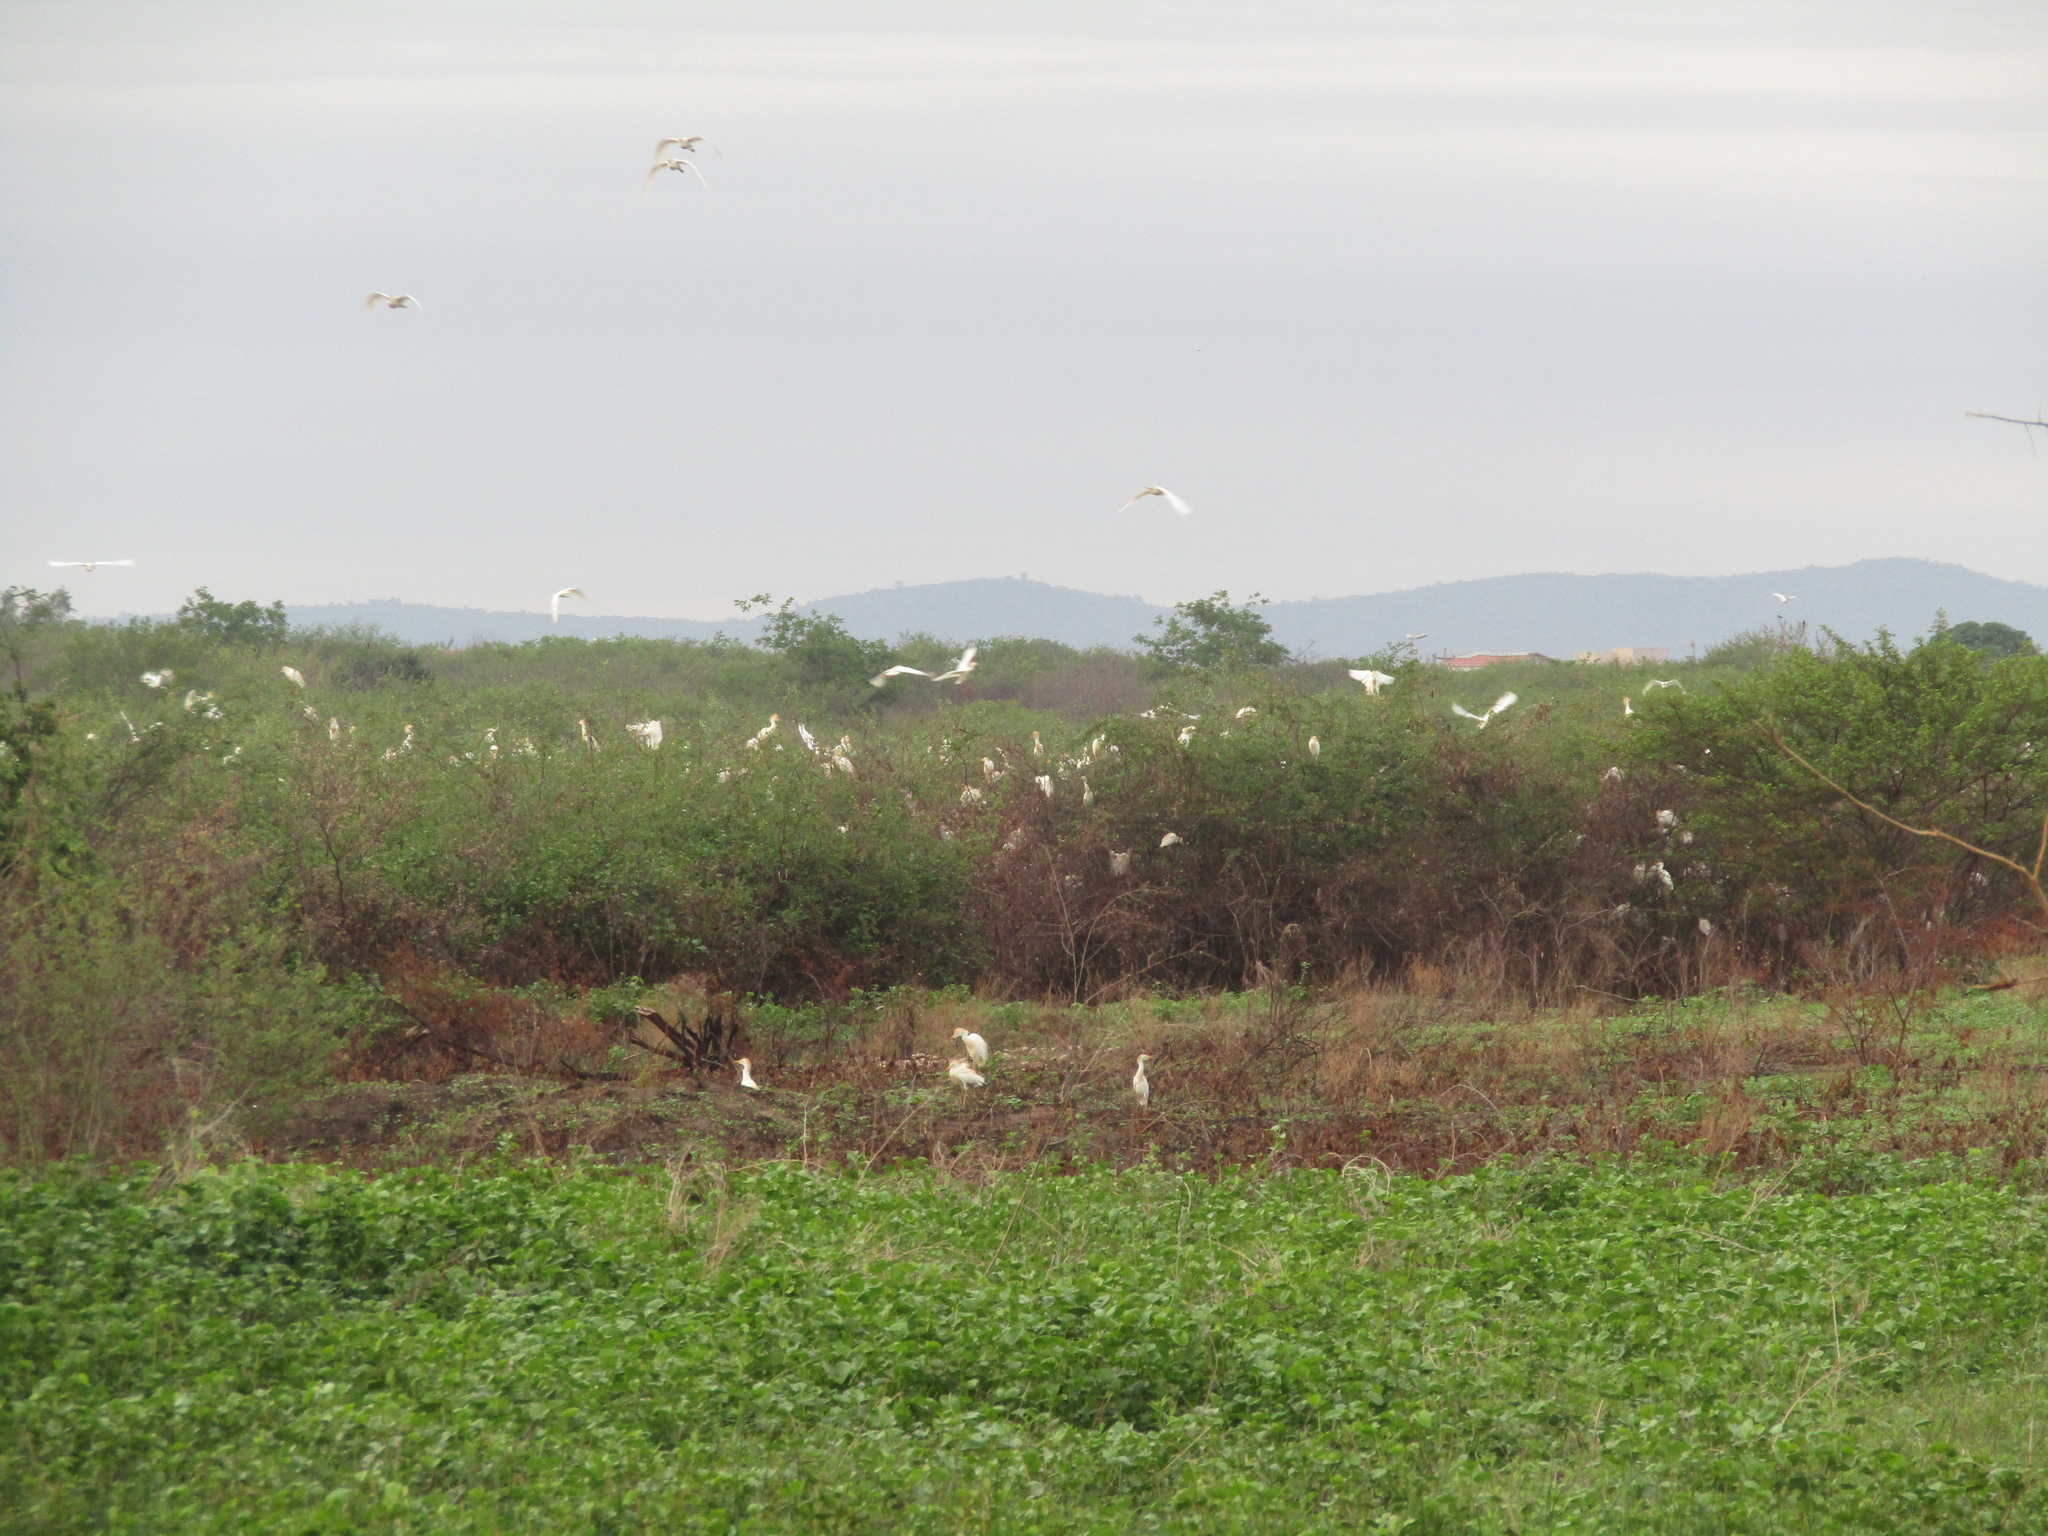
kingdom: Animalia
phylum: Chordata
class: Aves
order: Pelecaniformes
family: Ardeidae
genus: Bubulcus
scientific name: Bubulcus ibis
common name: Cattle egret
